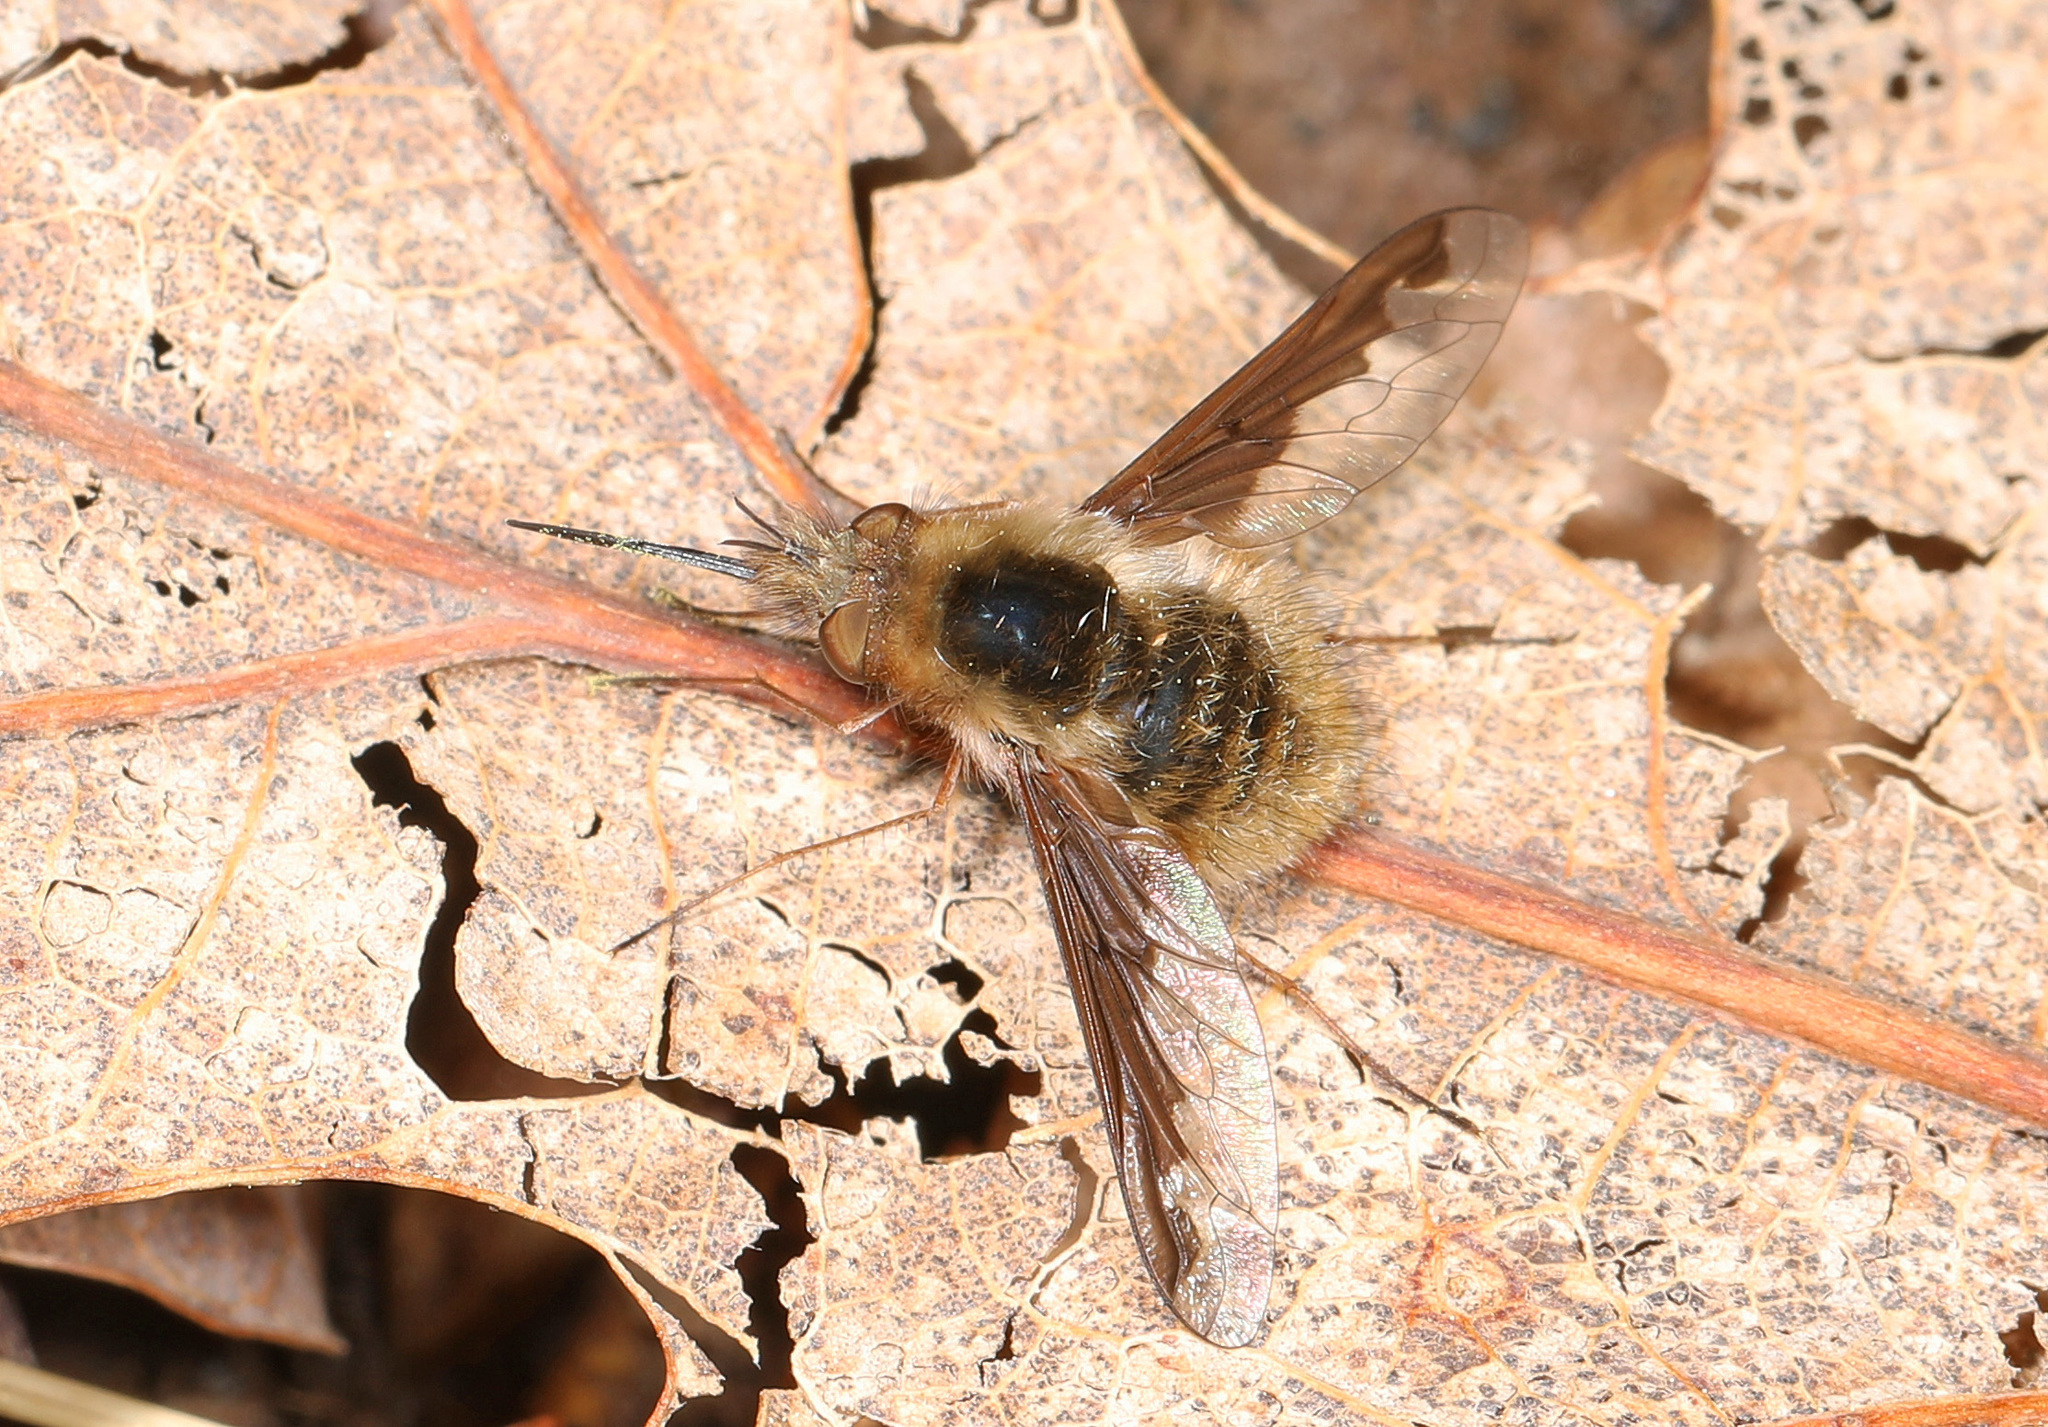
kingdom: Animalia
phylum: Arthropoda
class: Insecta
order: Diptera
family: Bombyliidae
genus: Bombylius
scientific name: Bombylius major
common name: Bee fly
